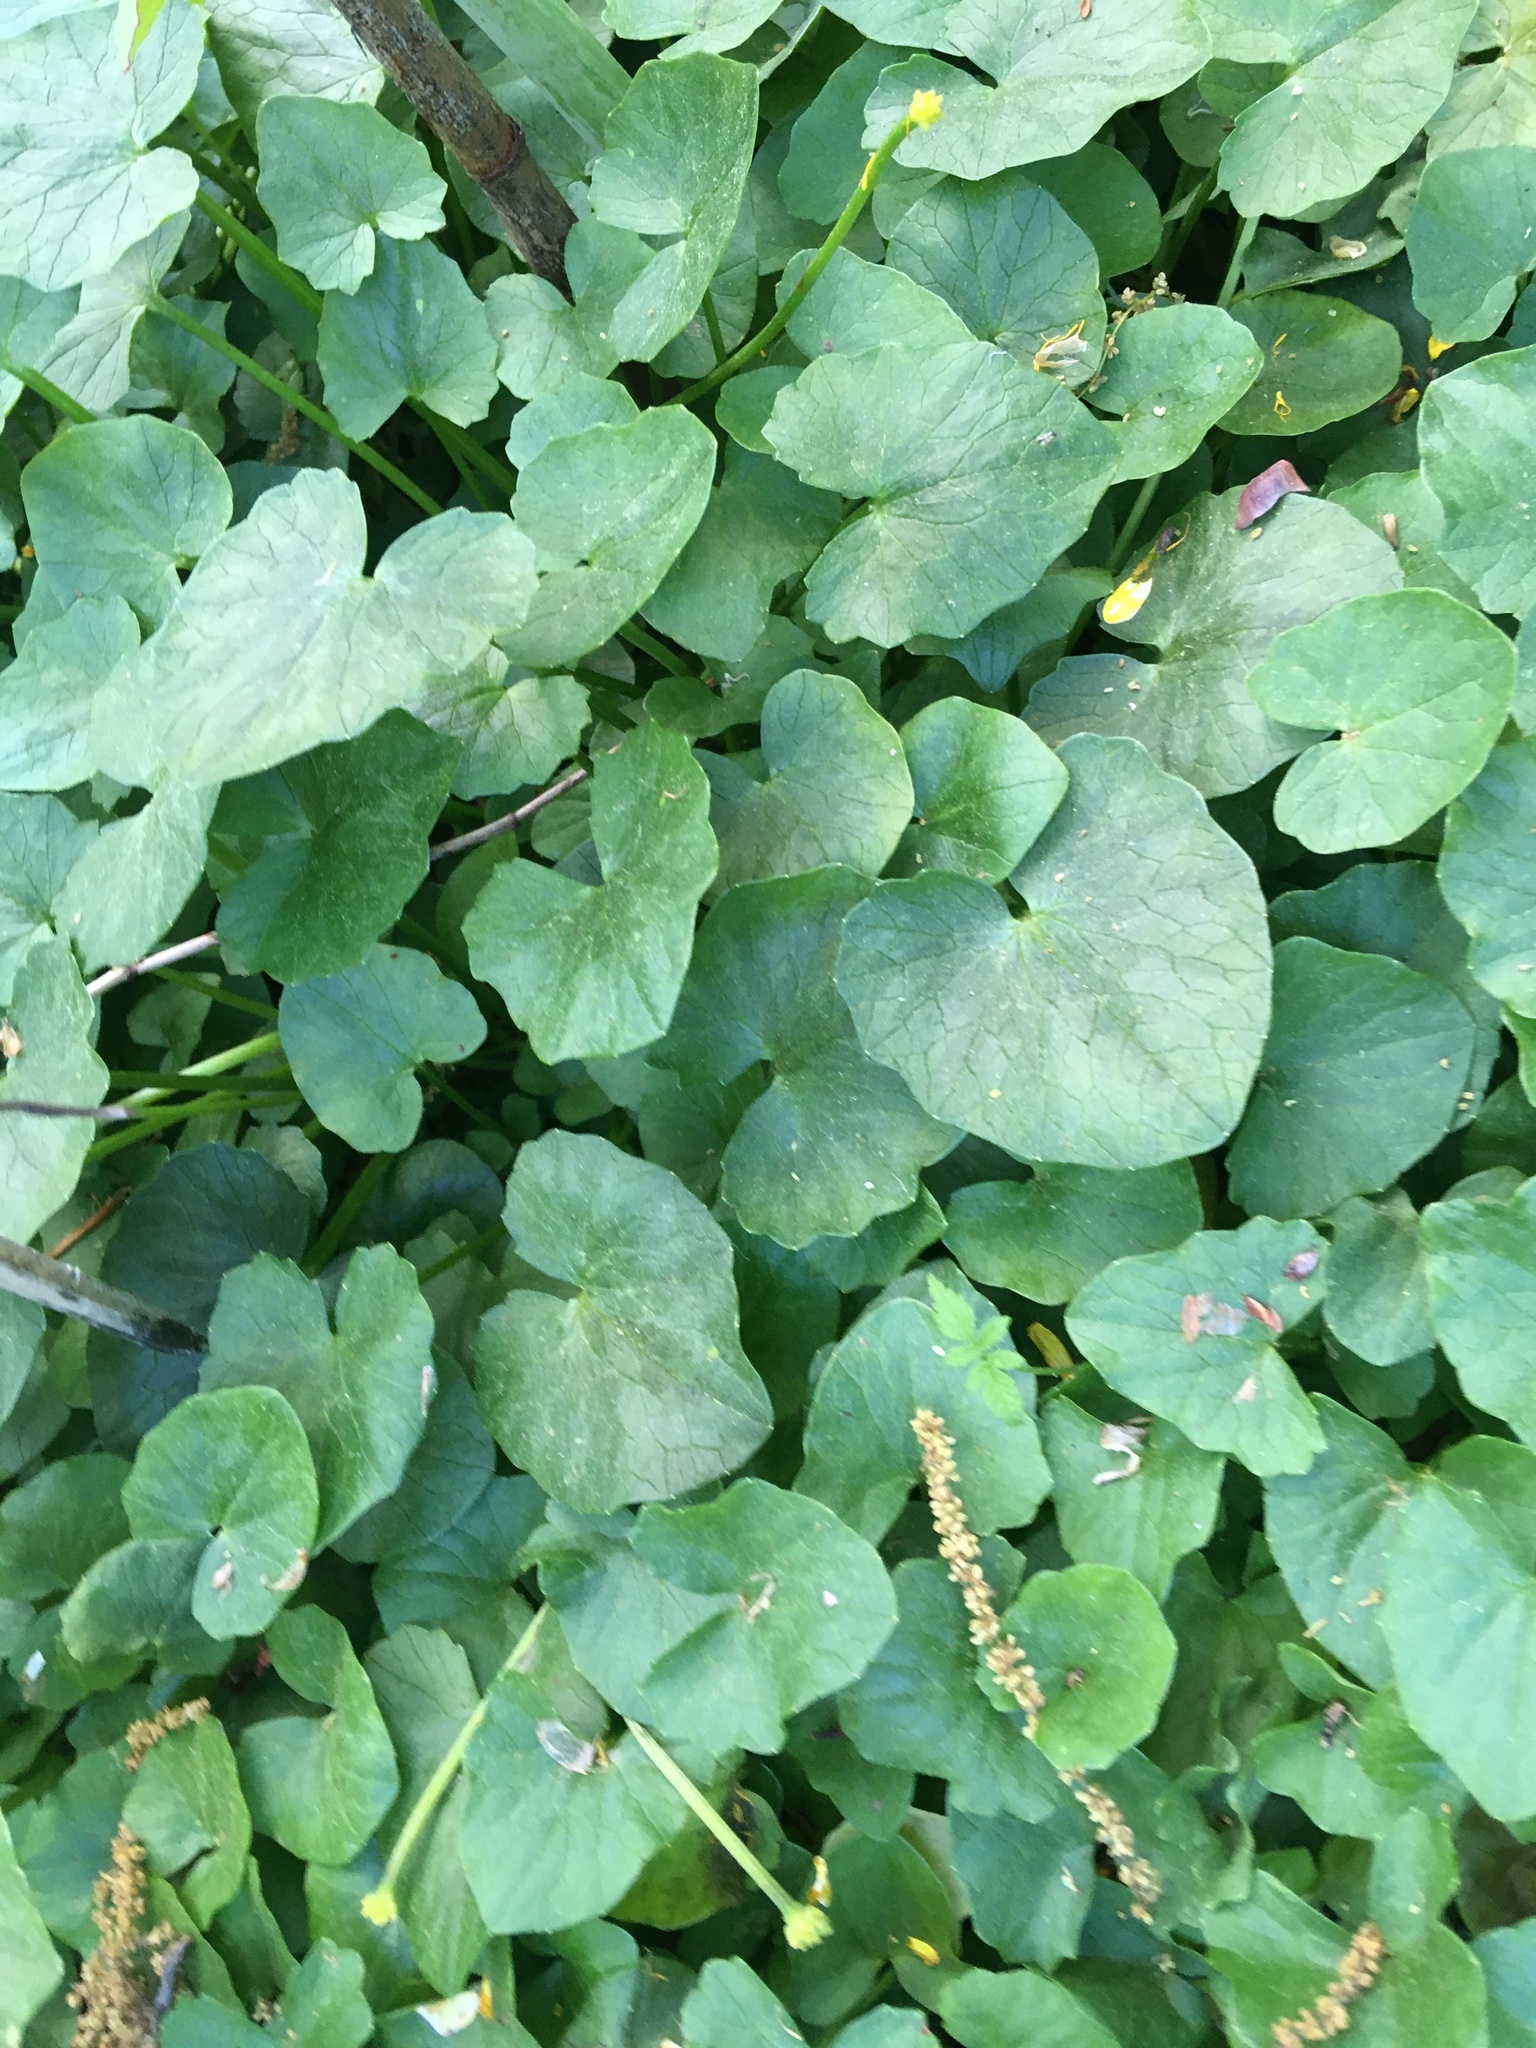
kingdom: Plantae
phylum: Tracheophyta
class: Magnoliopsida
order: Ranunculales
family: Ranunculaceae
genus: Ficaria
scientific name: Ficaria verna
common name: Lesser celandine
